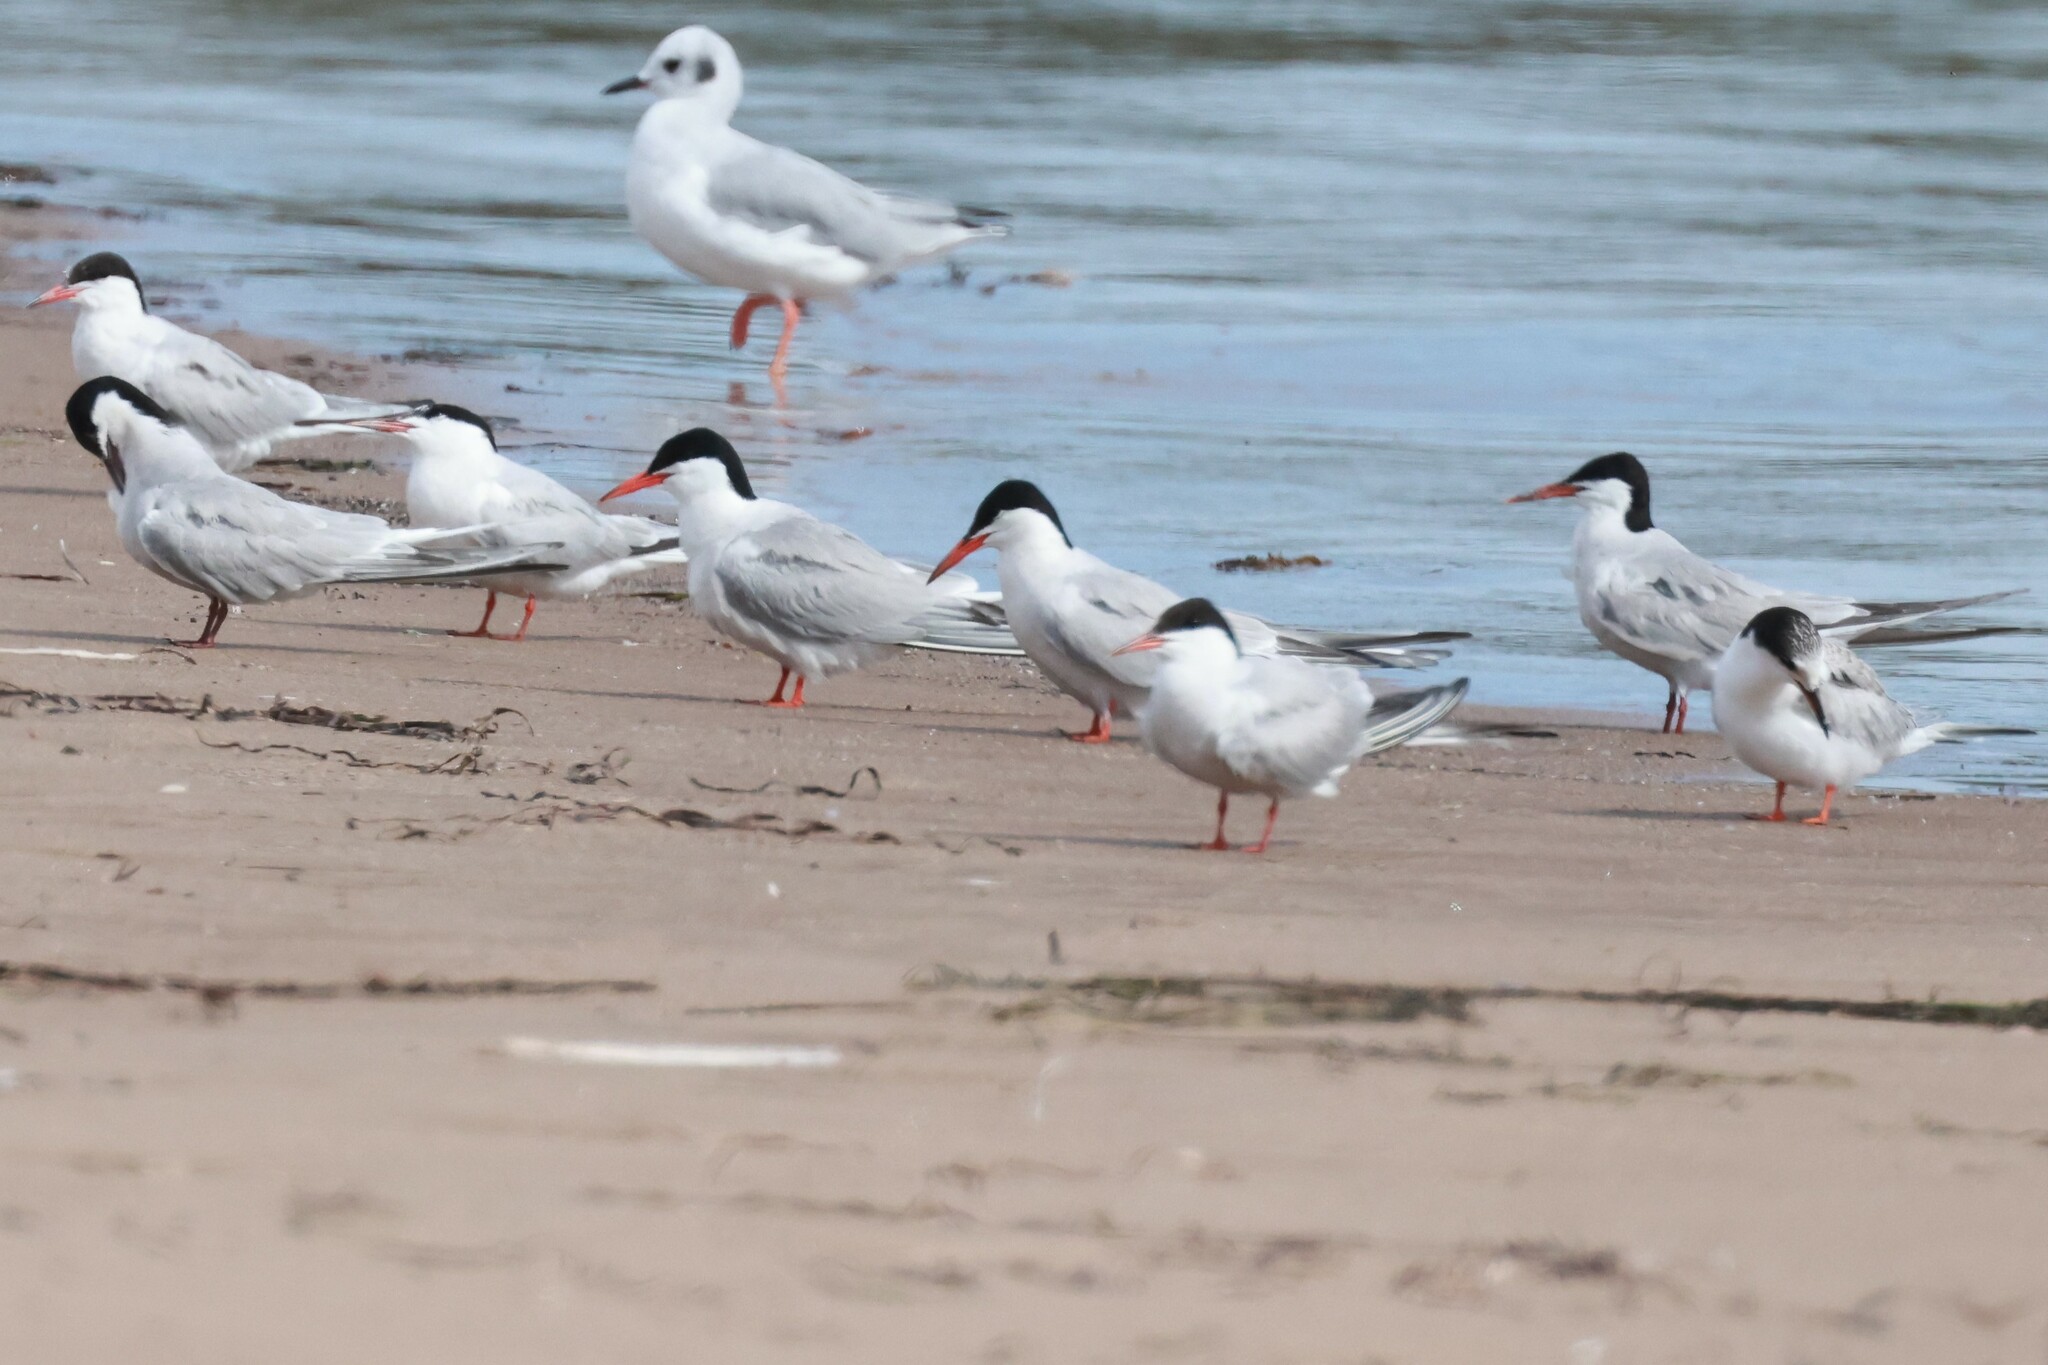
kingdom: Animalia
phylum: Chordata
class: Aves
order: Charadriiformes
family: Laridae
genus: Sterna
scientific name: Sterna hirundo
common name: Common tern
